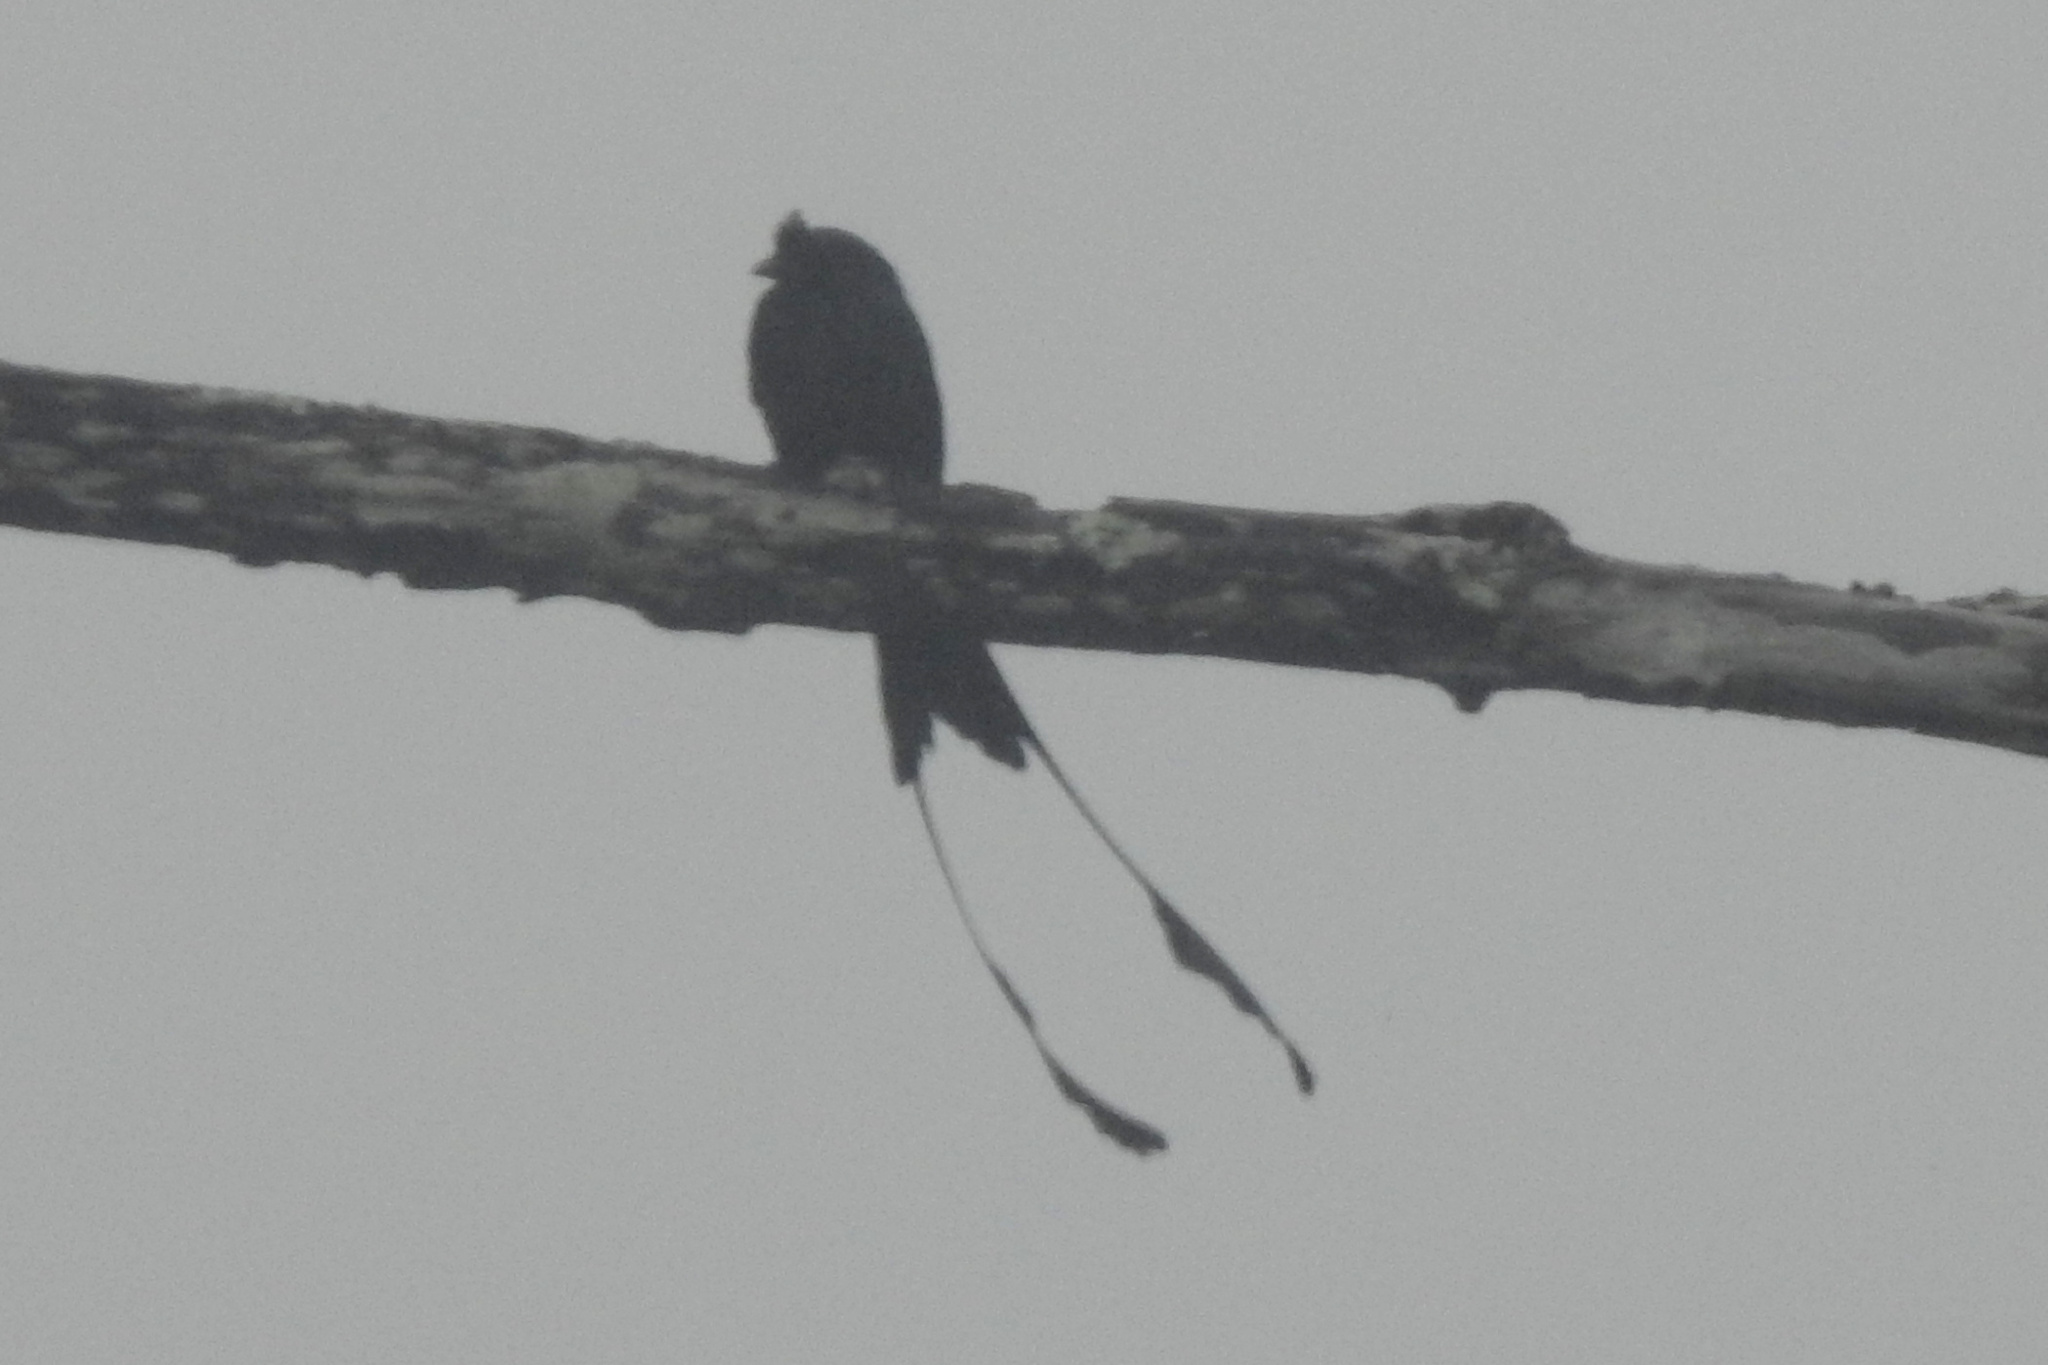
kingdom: Animalia
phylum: Chordata
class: Aves
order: Passeriformes
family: Dicruridae
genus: Dicrurus
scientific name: Dicrurus paradiseus
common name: Greater racket-tailed drongo
